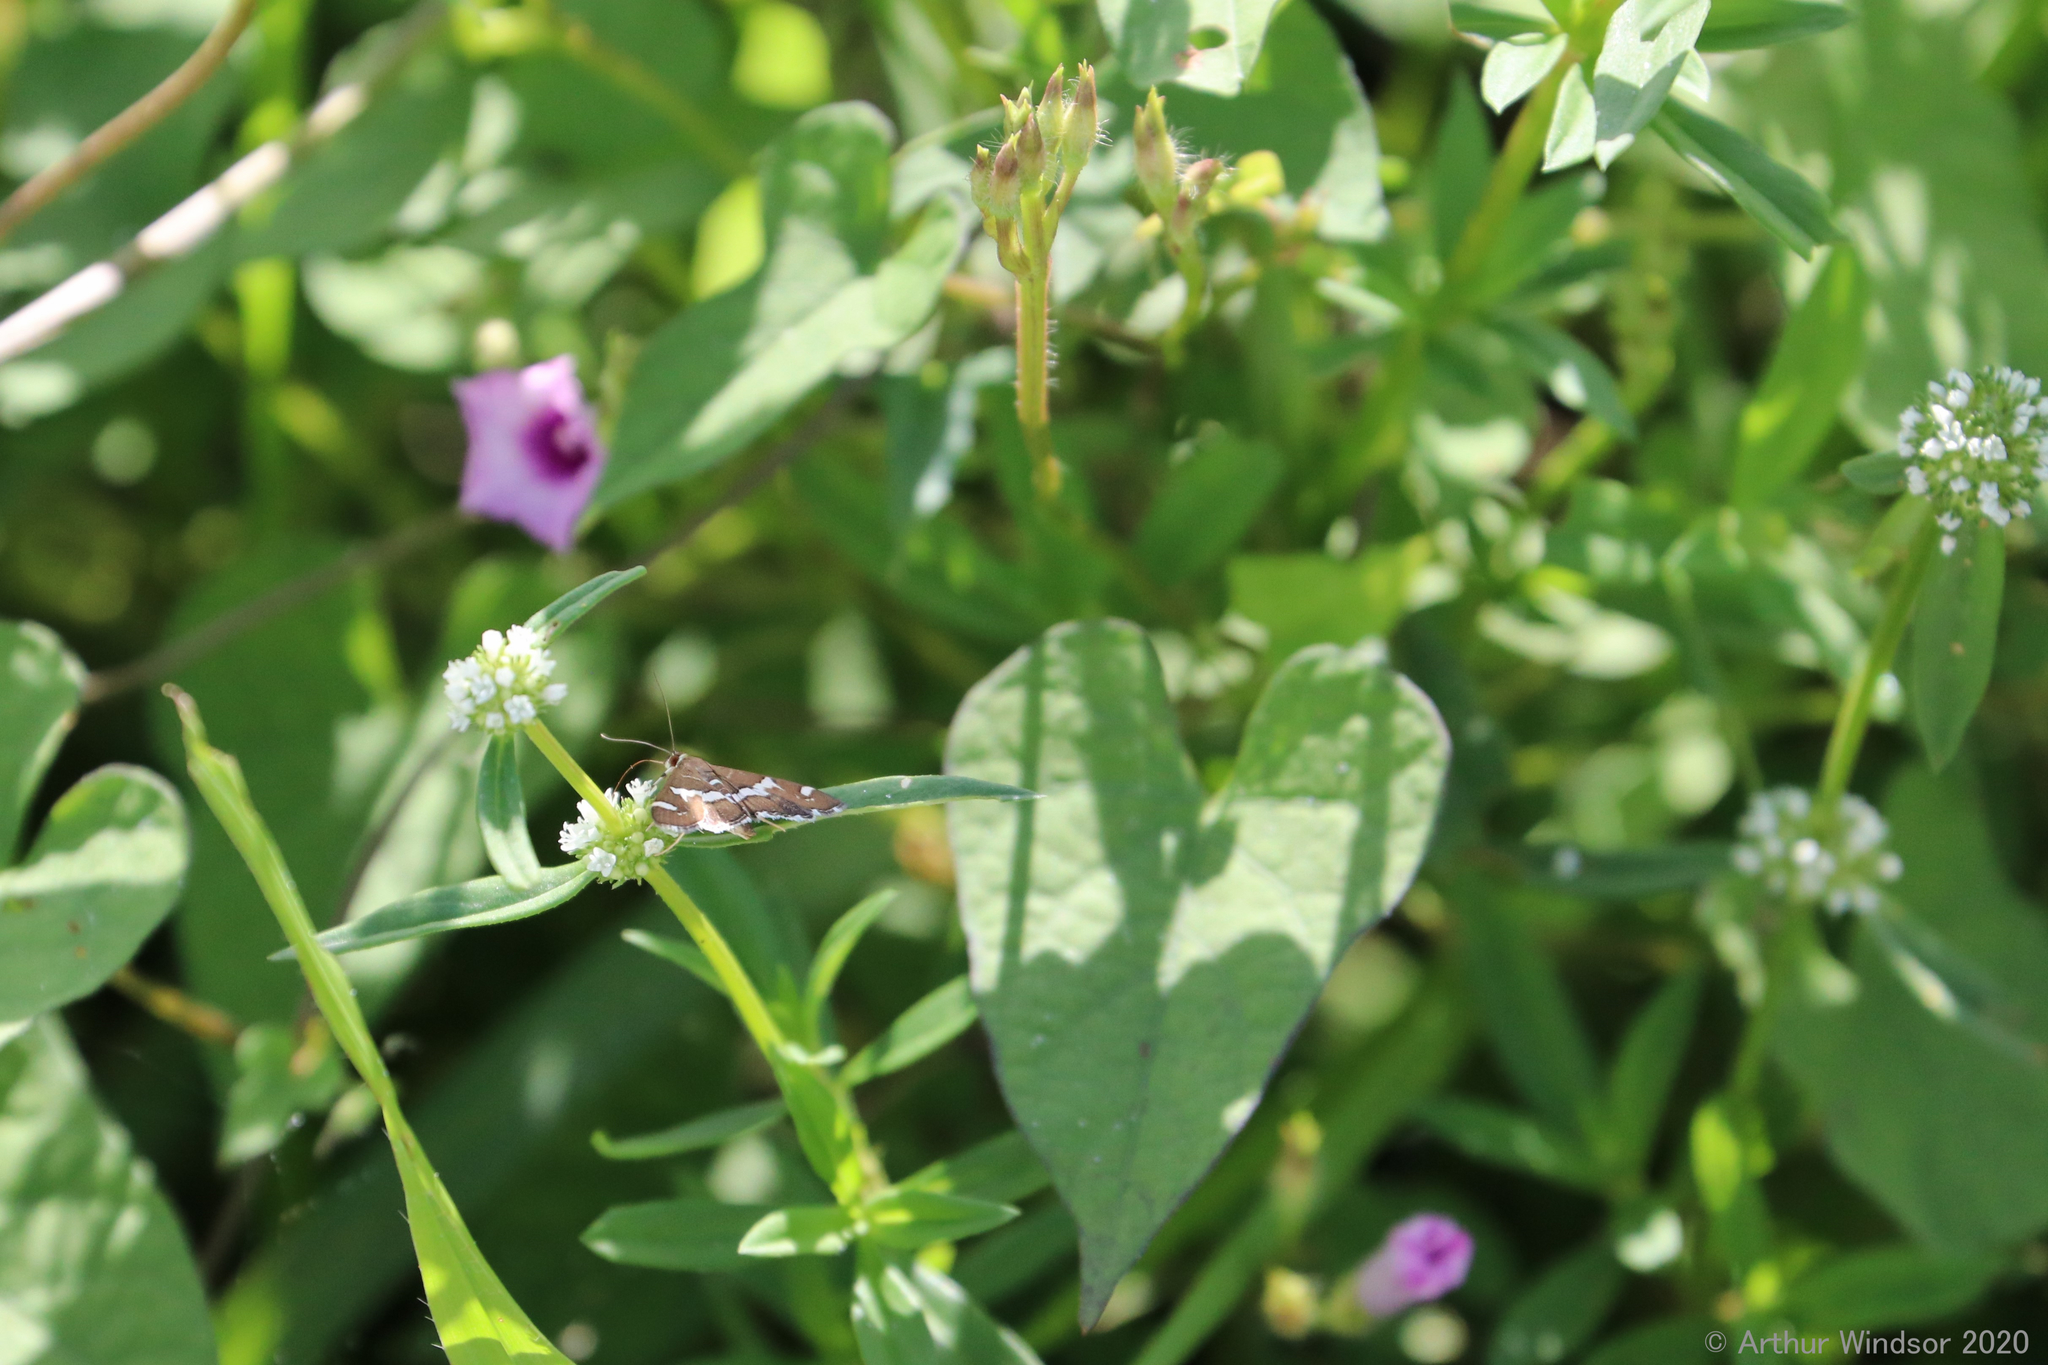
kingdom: Animalia
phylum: Arthropoda
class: Insecta
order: Lepidoptera
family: Crambidae
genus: Spoladea
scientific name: Spoladea recurvalis
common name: Beet webworm moth
